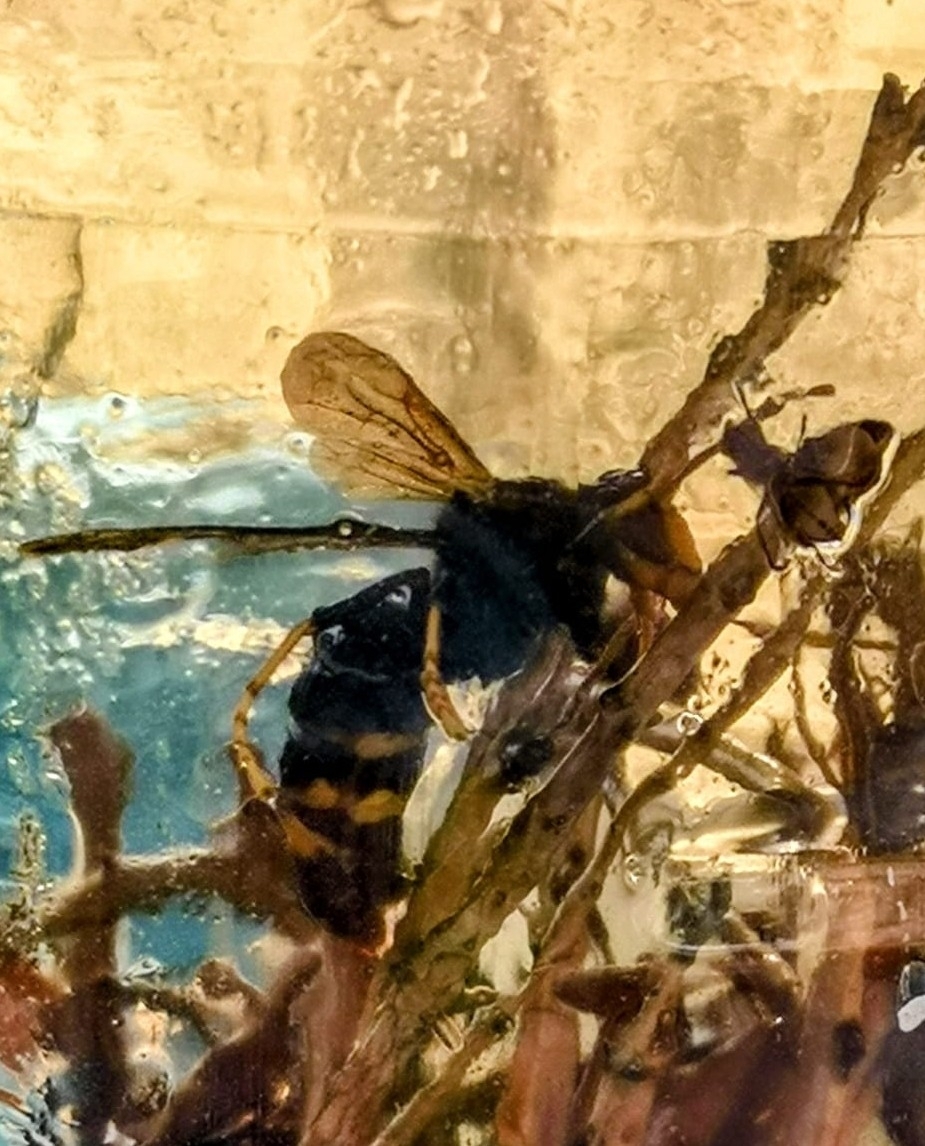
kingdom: Animalia
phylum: Arthropoda
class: Insecta
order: Hymenoptera
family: Vespidae
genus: Vespa
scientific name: Vespa velutina
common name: Asian hornet
